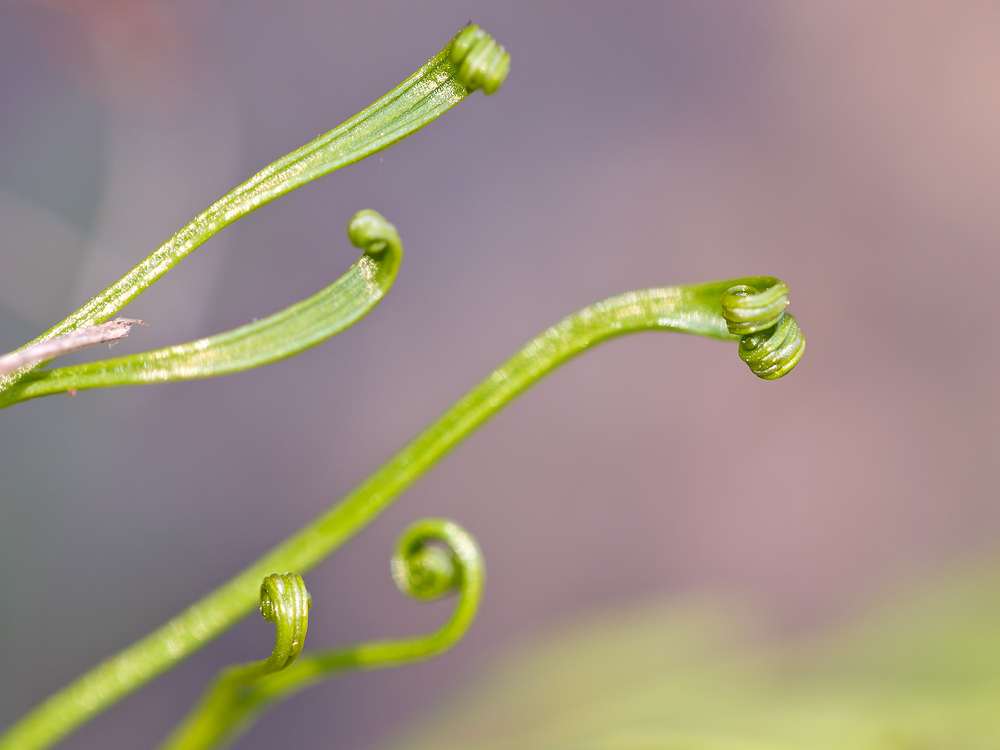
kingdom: Plantae
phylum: Tracheophyta
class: Polypodiopsida
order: Polypodiales
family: Aspleniaceae
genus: Asplenium
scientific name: Asplenium septentrionale
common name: Forked spleenwort
